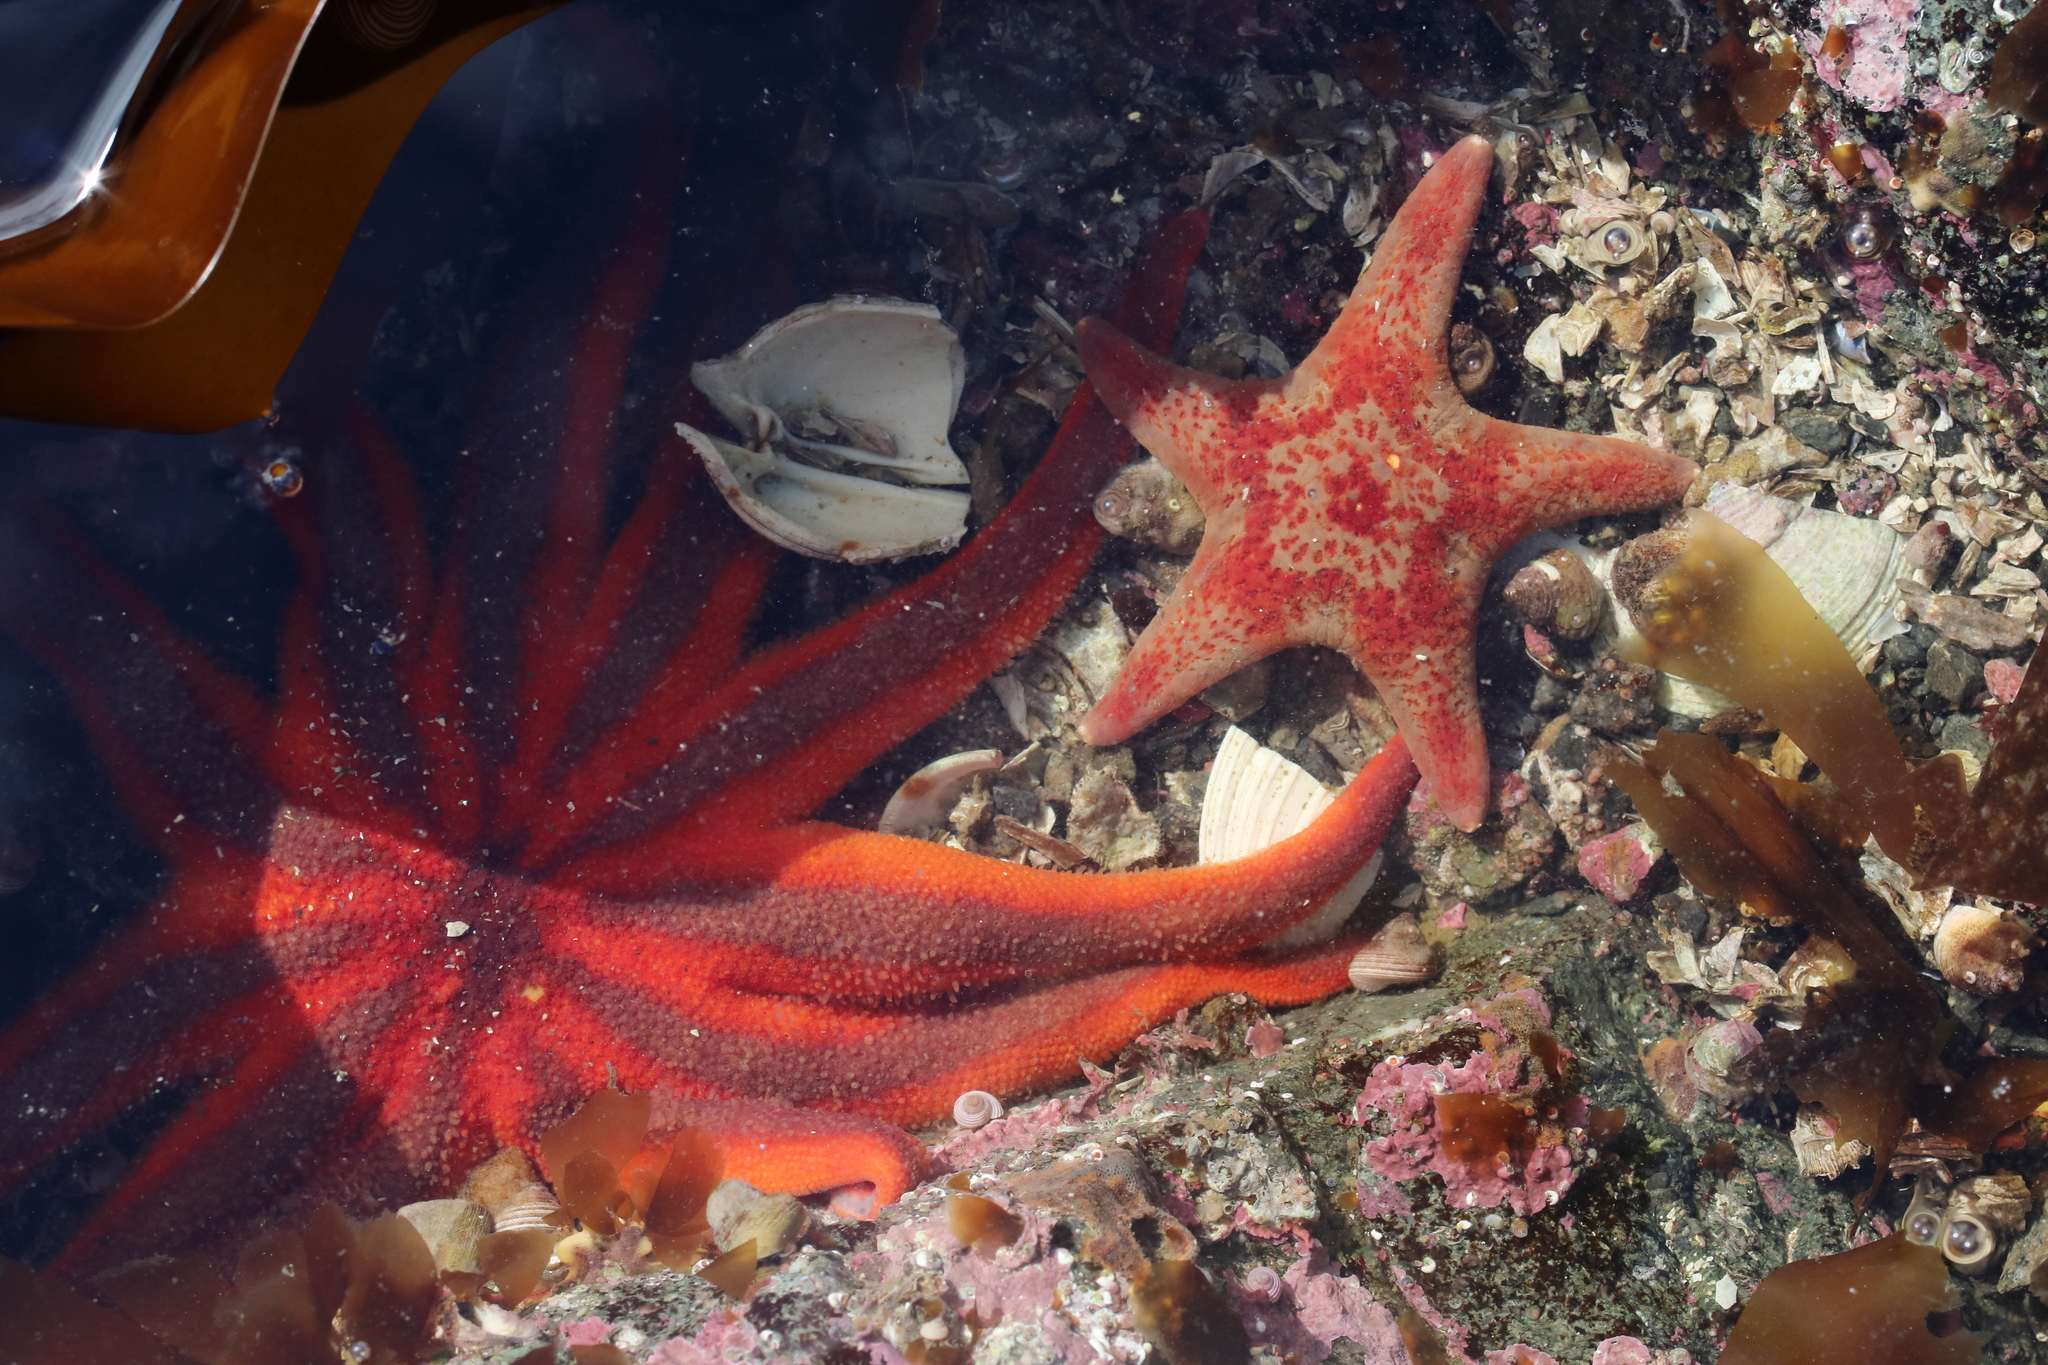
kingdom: Animalia
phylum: Echinodermata
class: Asteroidea
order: Valvatida
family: Solasteridae
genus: Solaster
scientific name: Solaster stimpsoni
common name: Orange sun star
